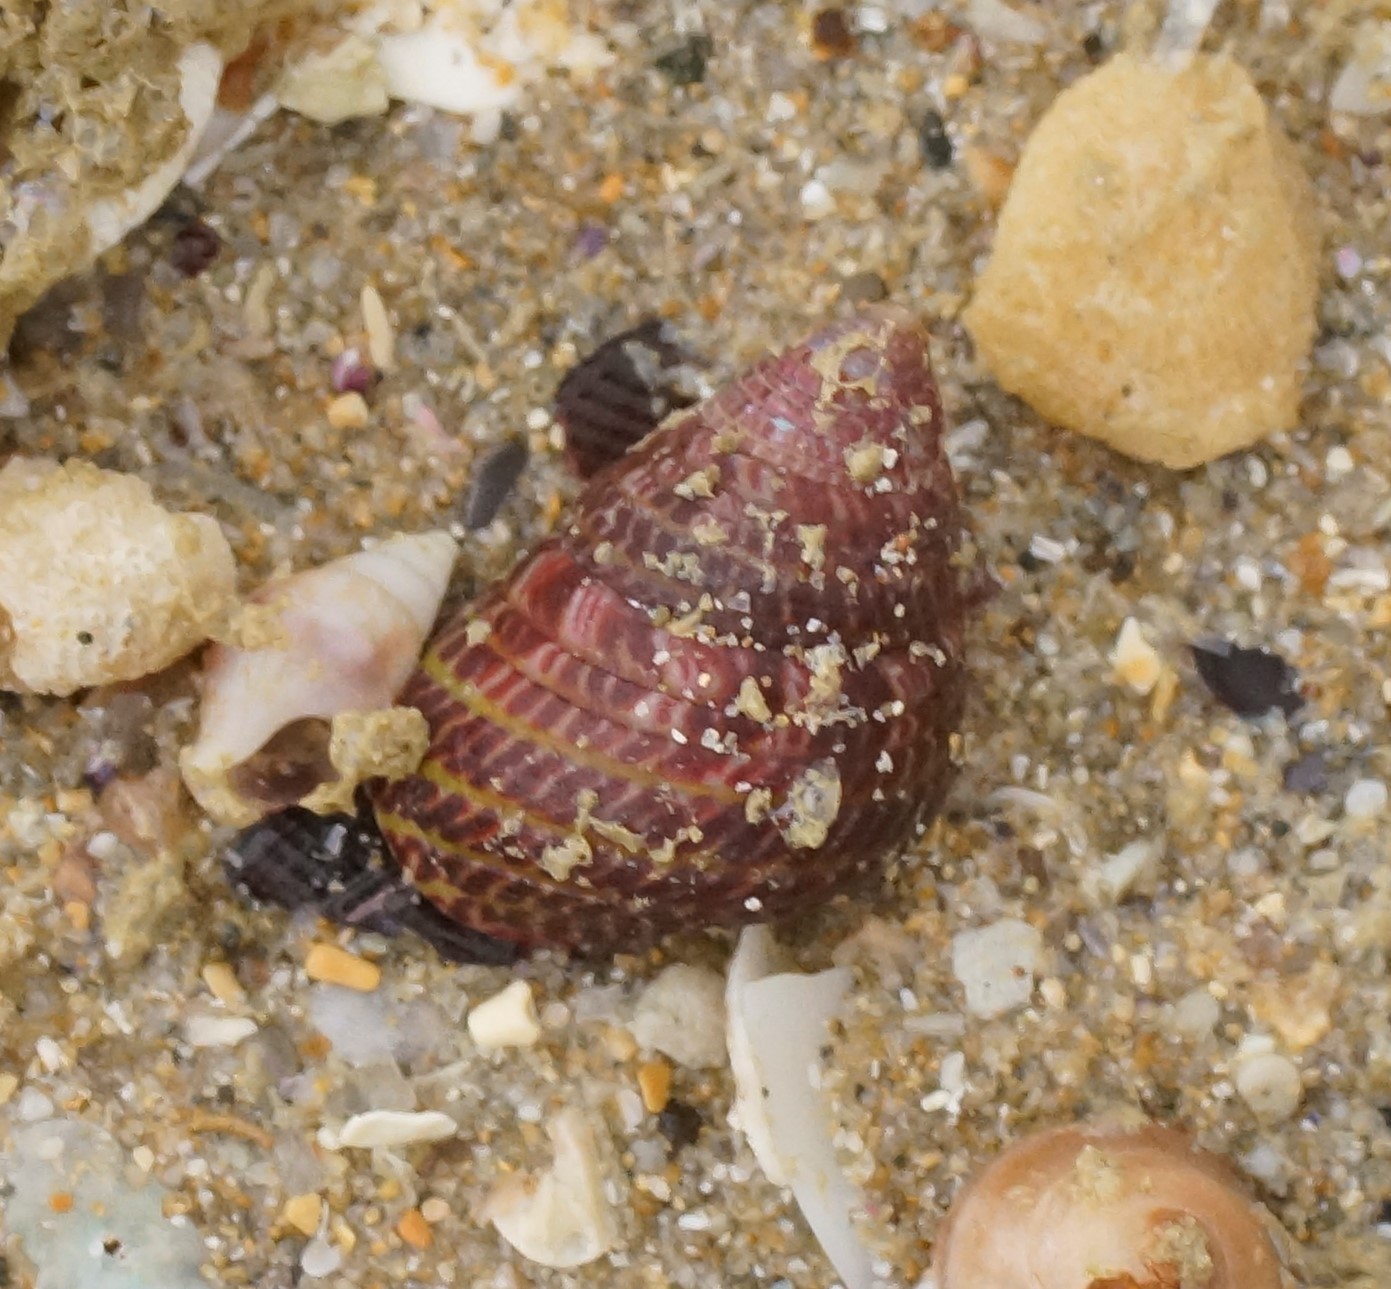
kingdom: Animalia
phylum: Mollusca
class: Gastropoda
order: Trochida
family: Trochidae
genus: Prothalotia
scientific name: Prothalotia pulcherrima
